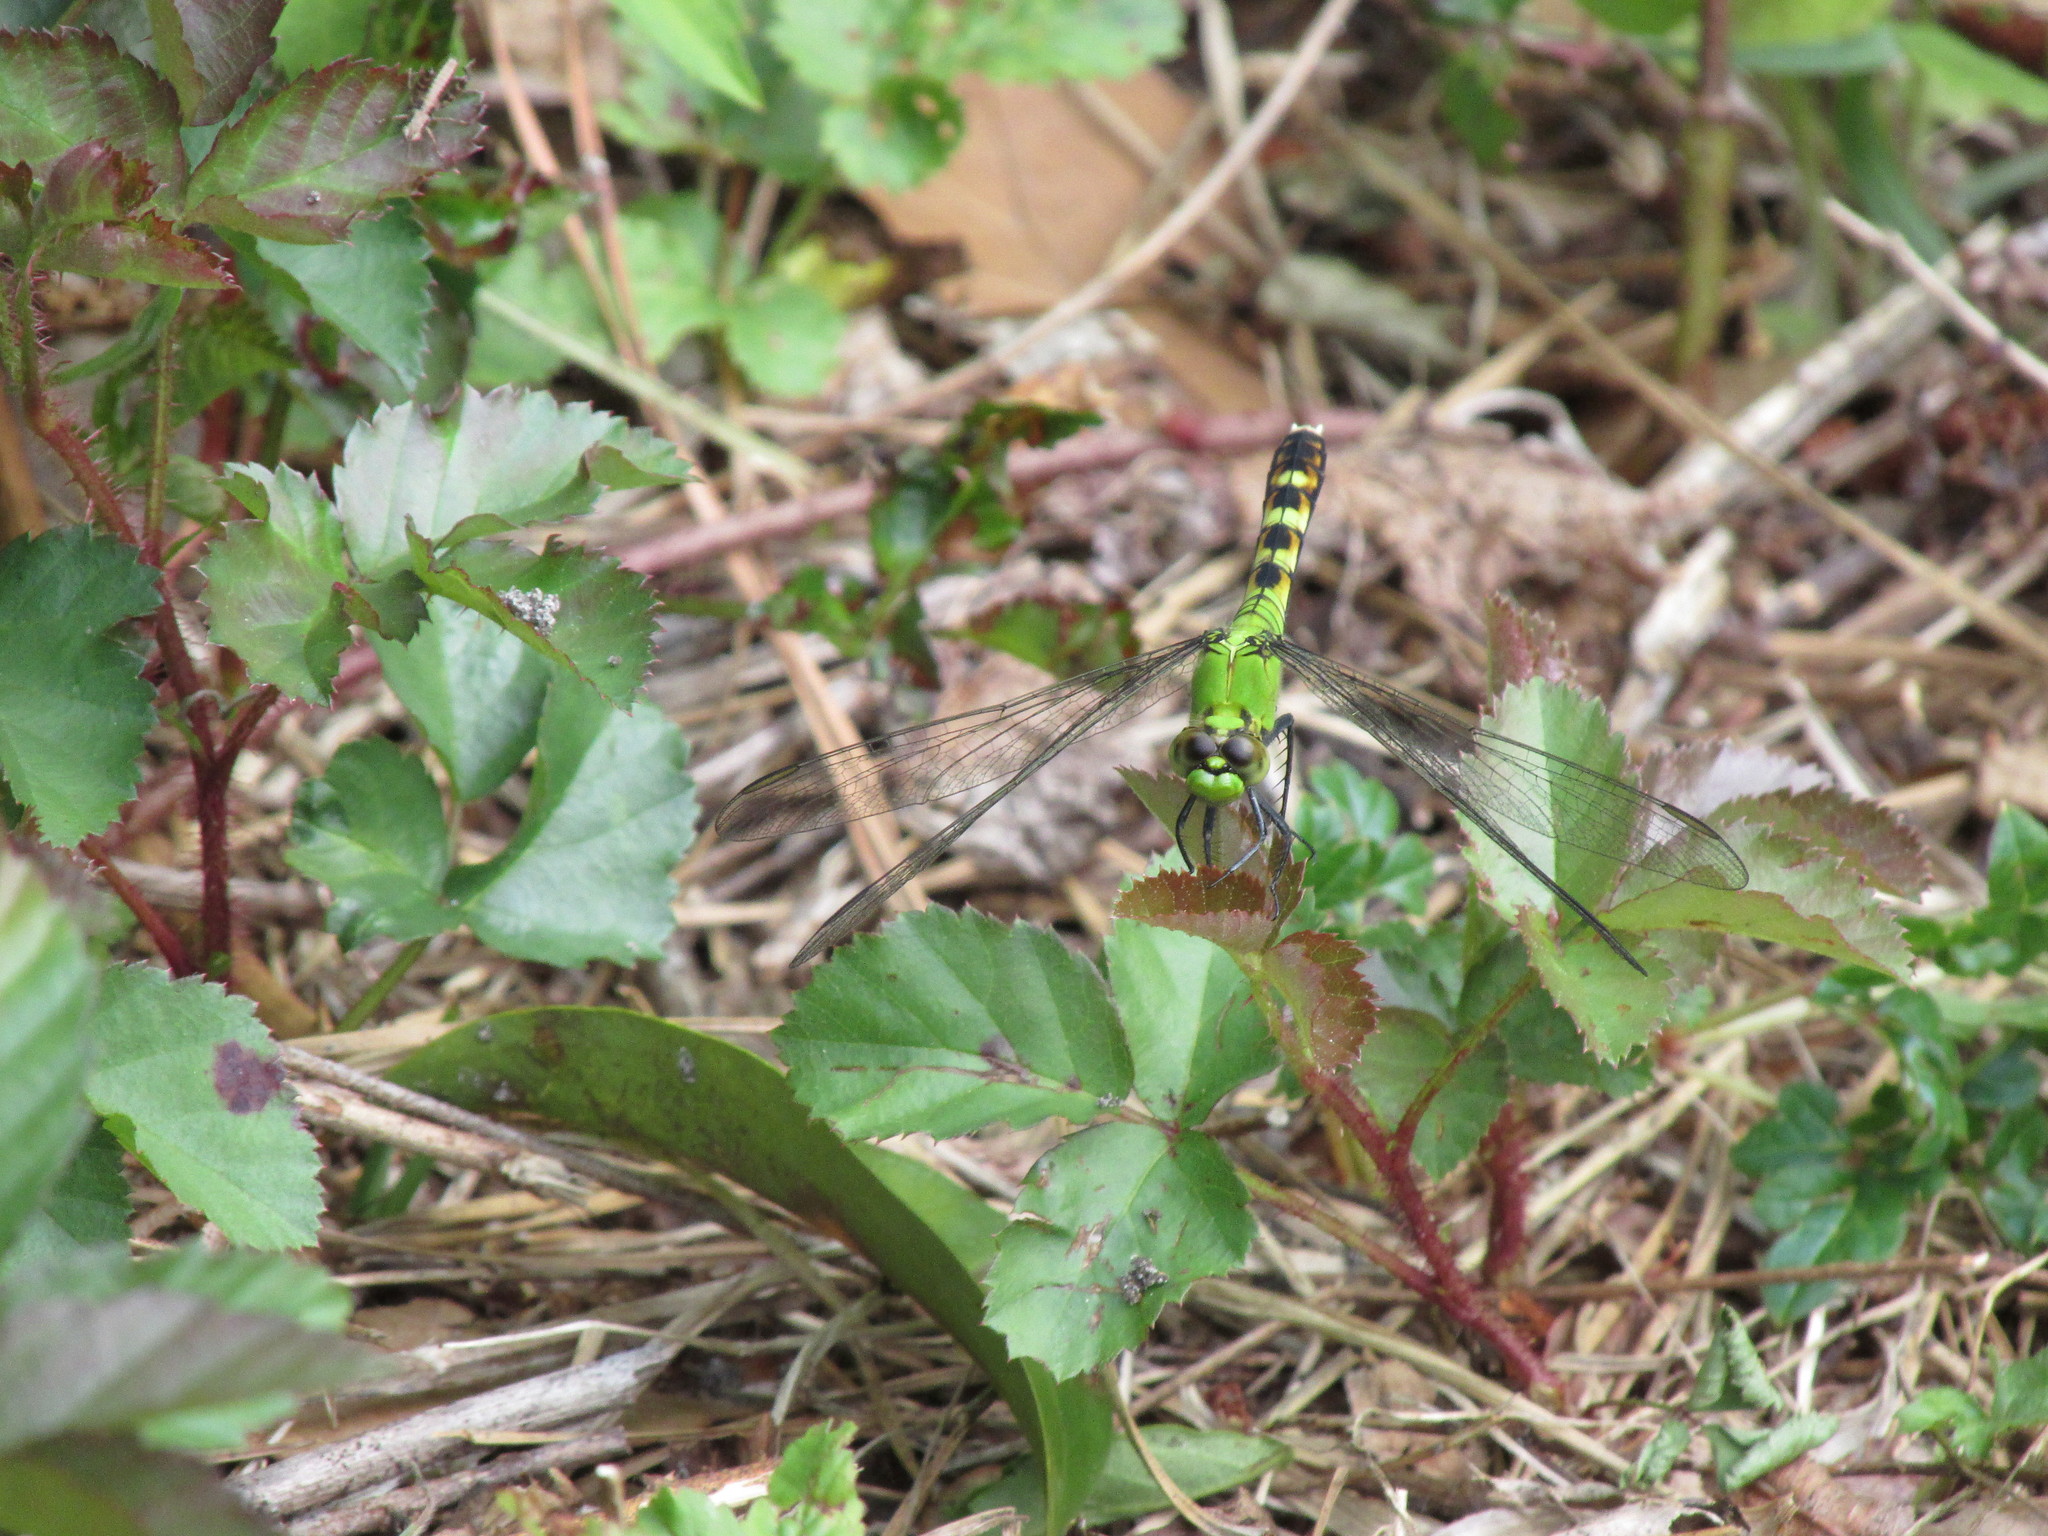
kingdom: Animalia
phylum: Arthropoda
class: Insecta
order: Odonata
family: Libellulidae
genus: Erythemis
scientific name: Erythemis simplicicollis
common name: Eastern pondhawk
